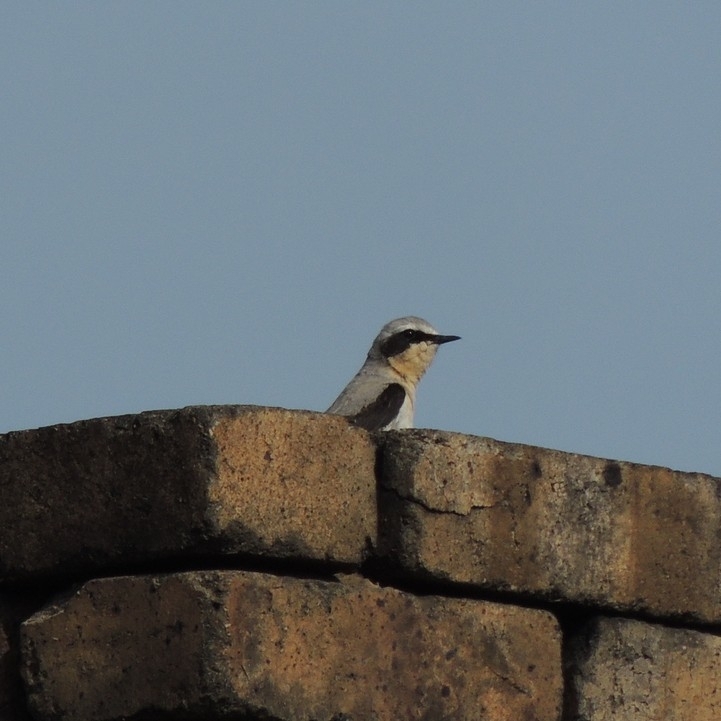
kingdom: Animalia
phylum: Chordata
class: Aves
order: Passeriformes
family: Muscicapidae
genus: Oenanthe
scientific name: Oenanthe oenanthe
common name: Northern wheatear
